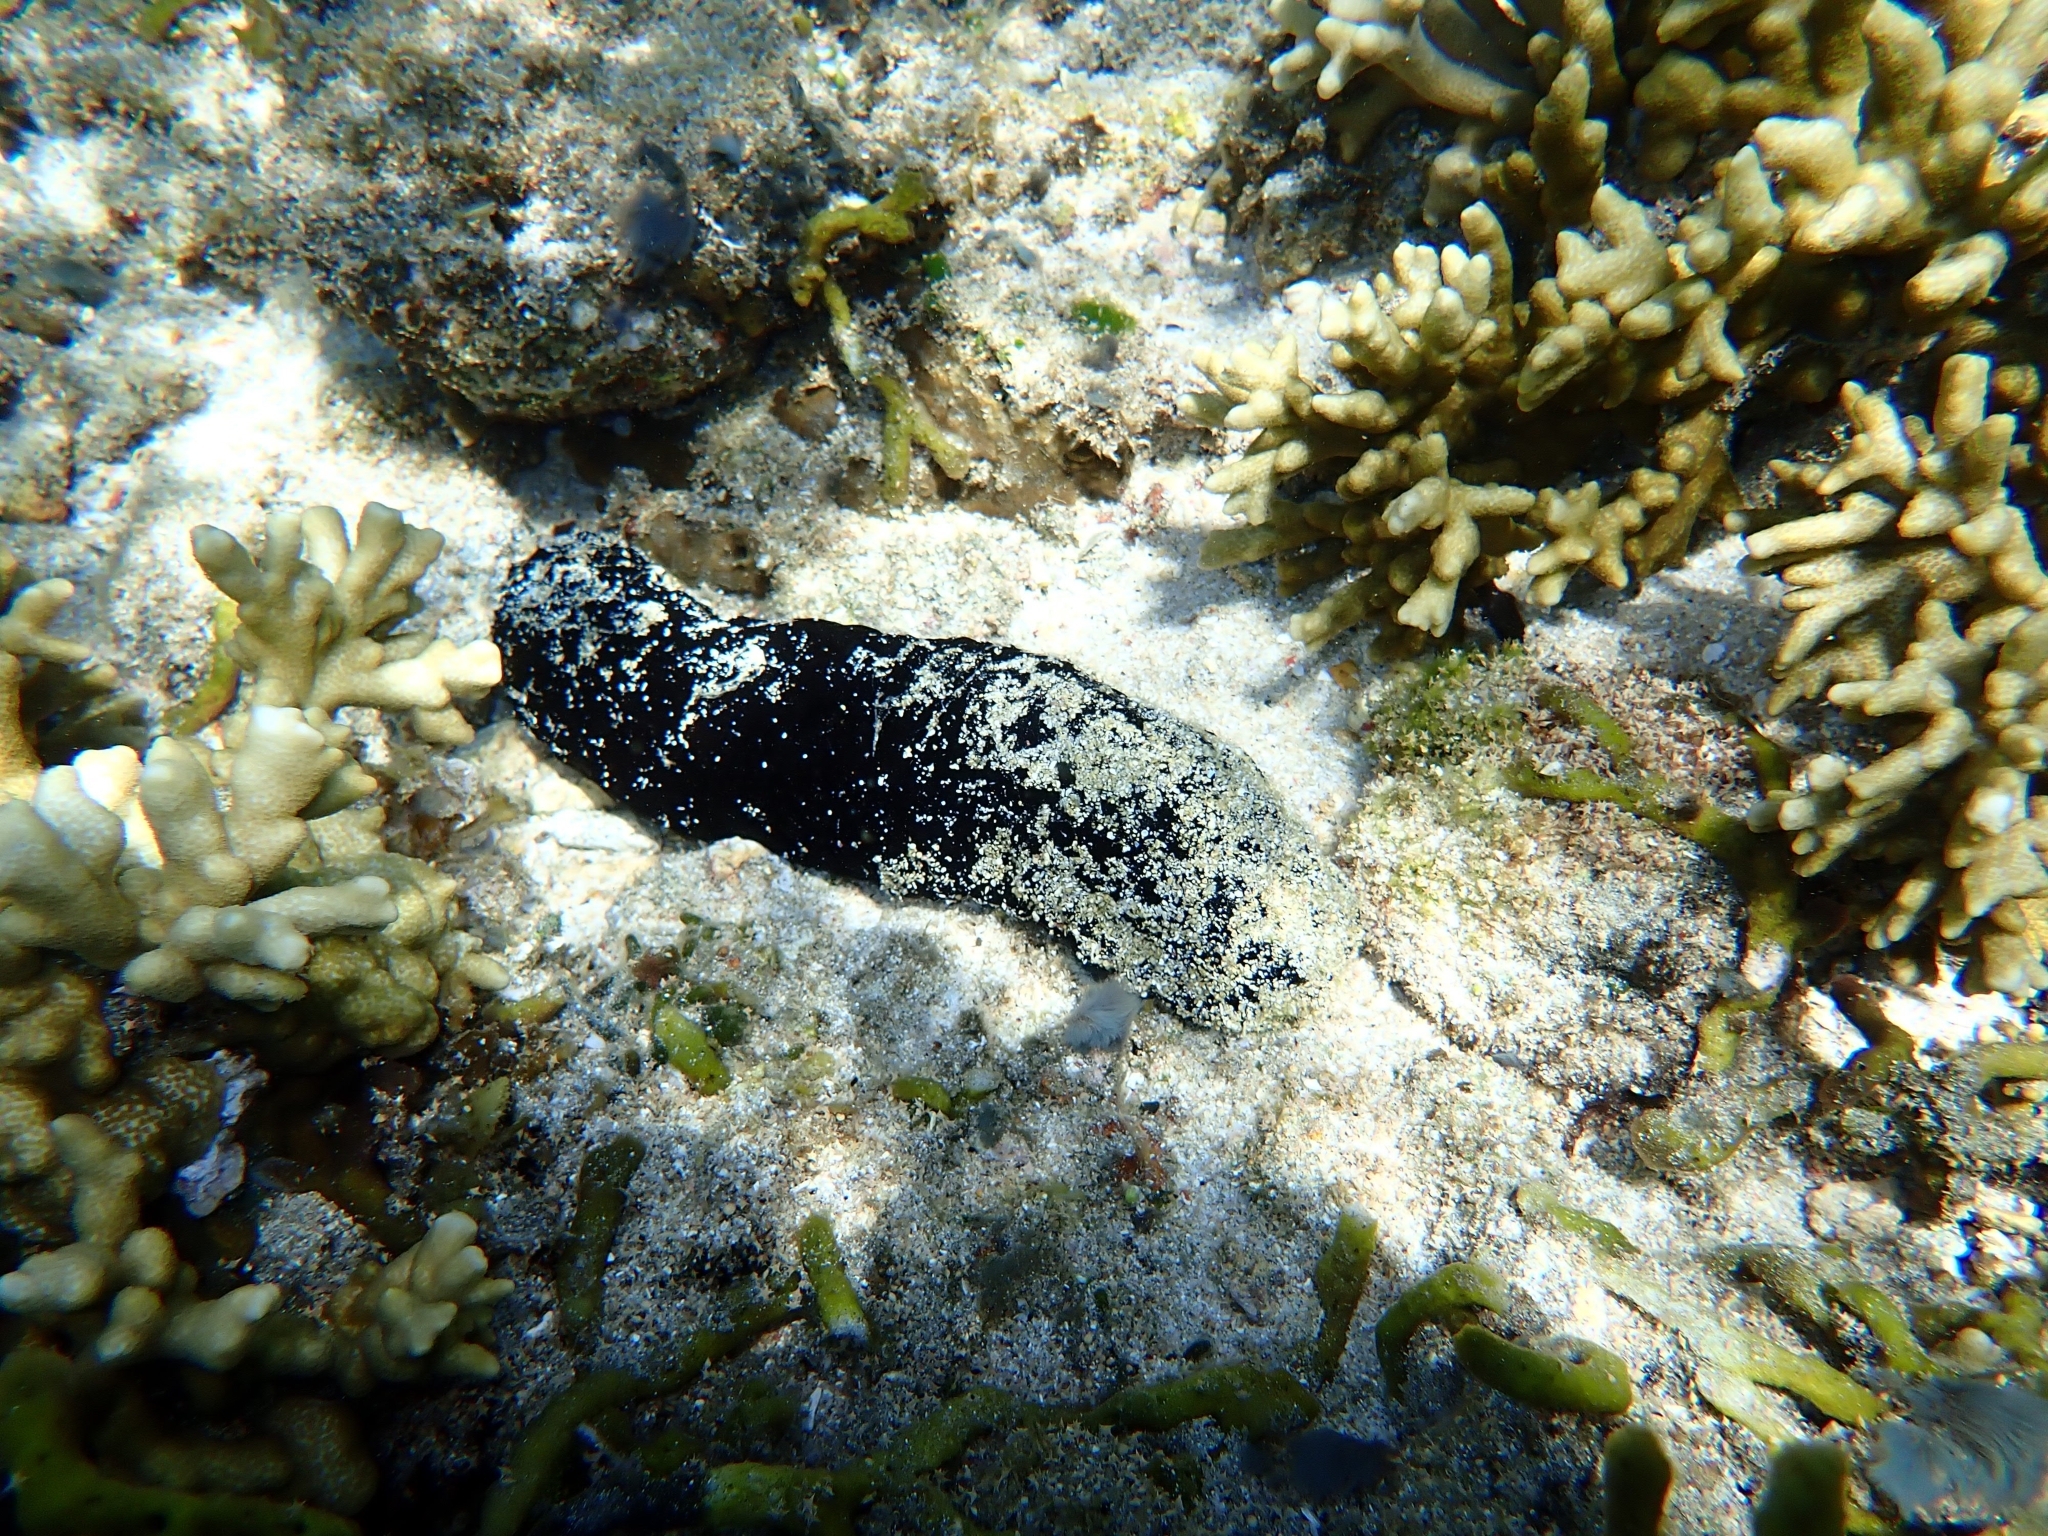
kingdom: Animalia
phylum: Echinodermata
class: Holothuroidea
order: Holothuriida
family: Holothuriidae
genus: Holothuria
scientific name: Holothuria atra
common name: Lollyfish
